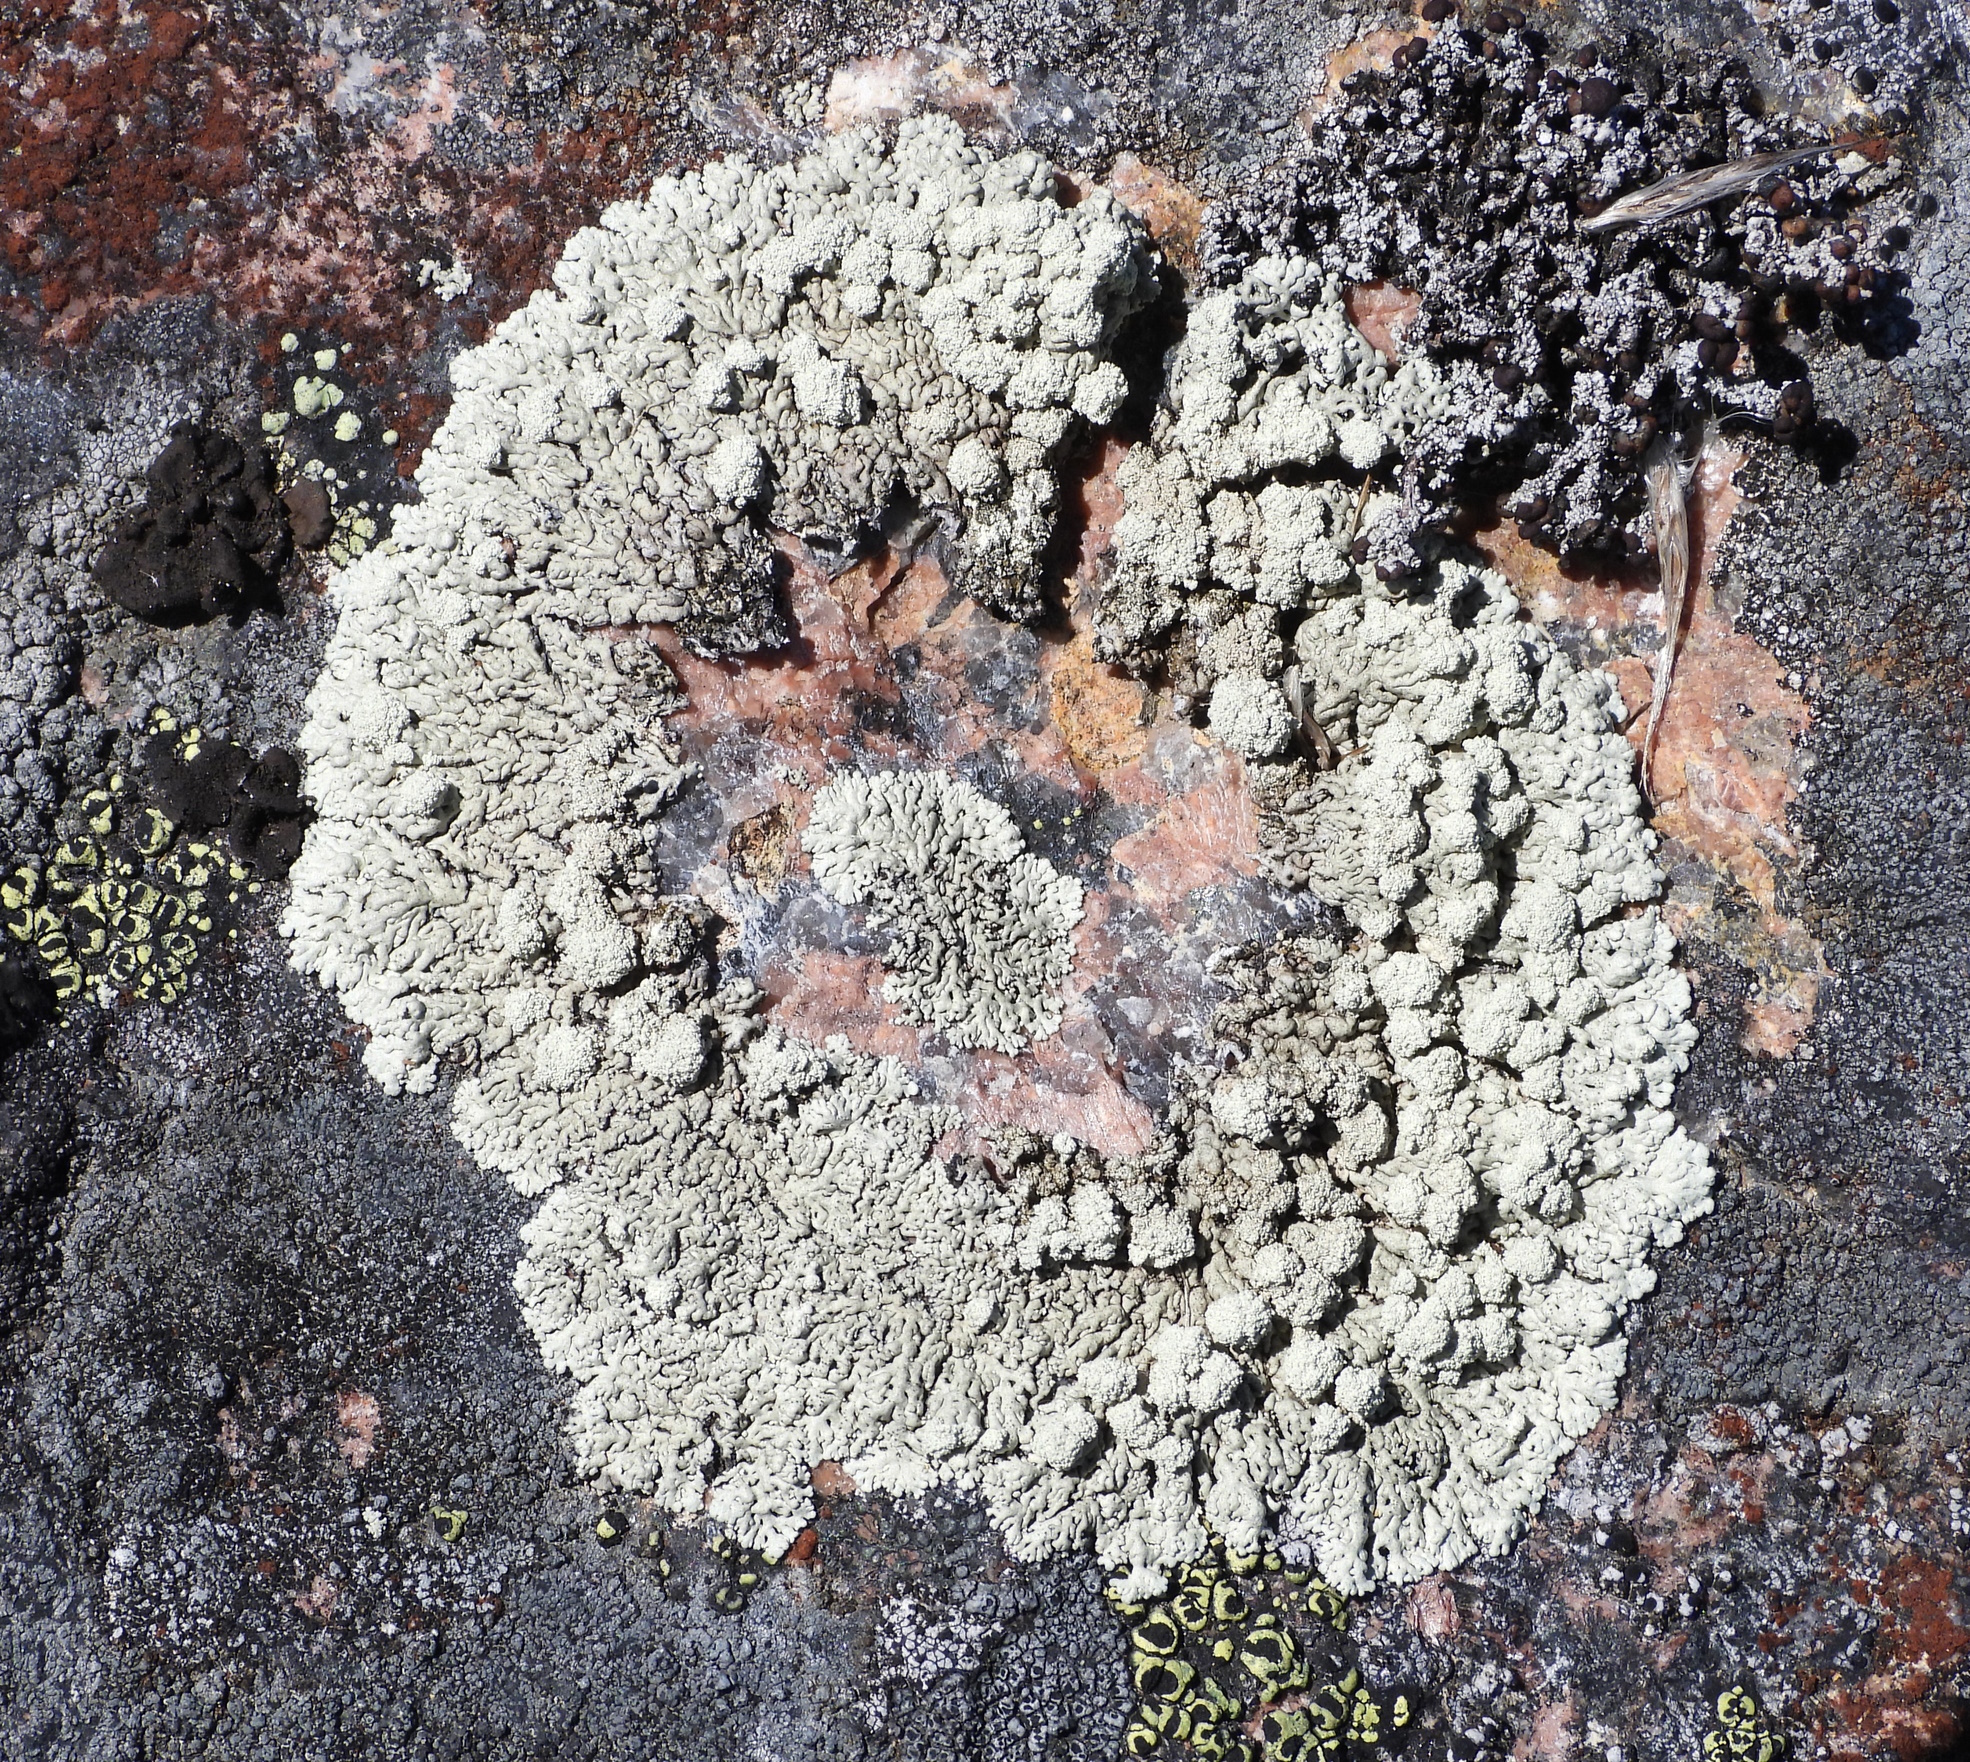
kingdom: Fungi
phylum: Ascomycota
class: Lecanoromycetes
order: Lecanorales
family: Parmeliaceae
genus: Arctoparmelia
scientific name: Arctoparmelia incurva
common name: Bent ring lichen
